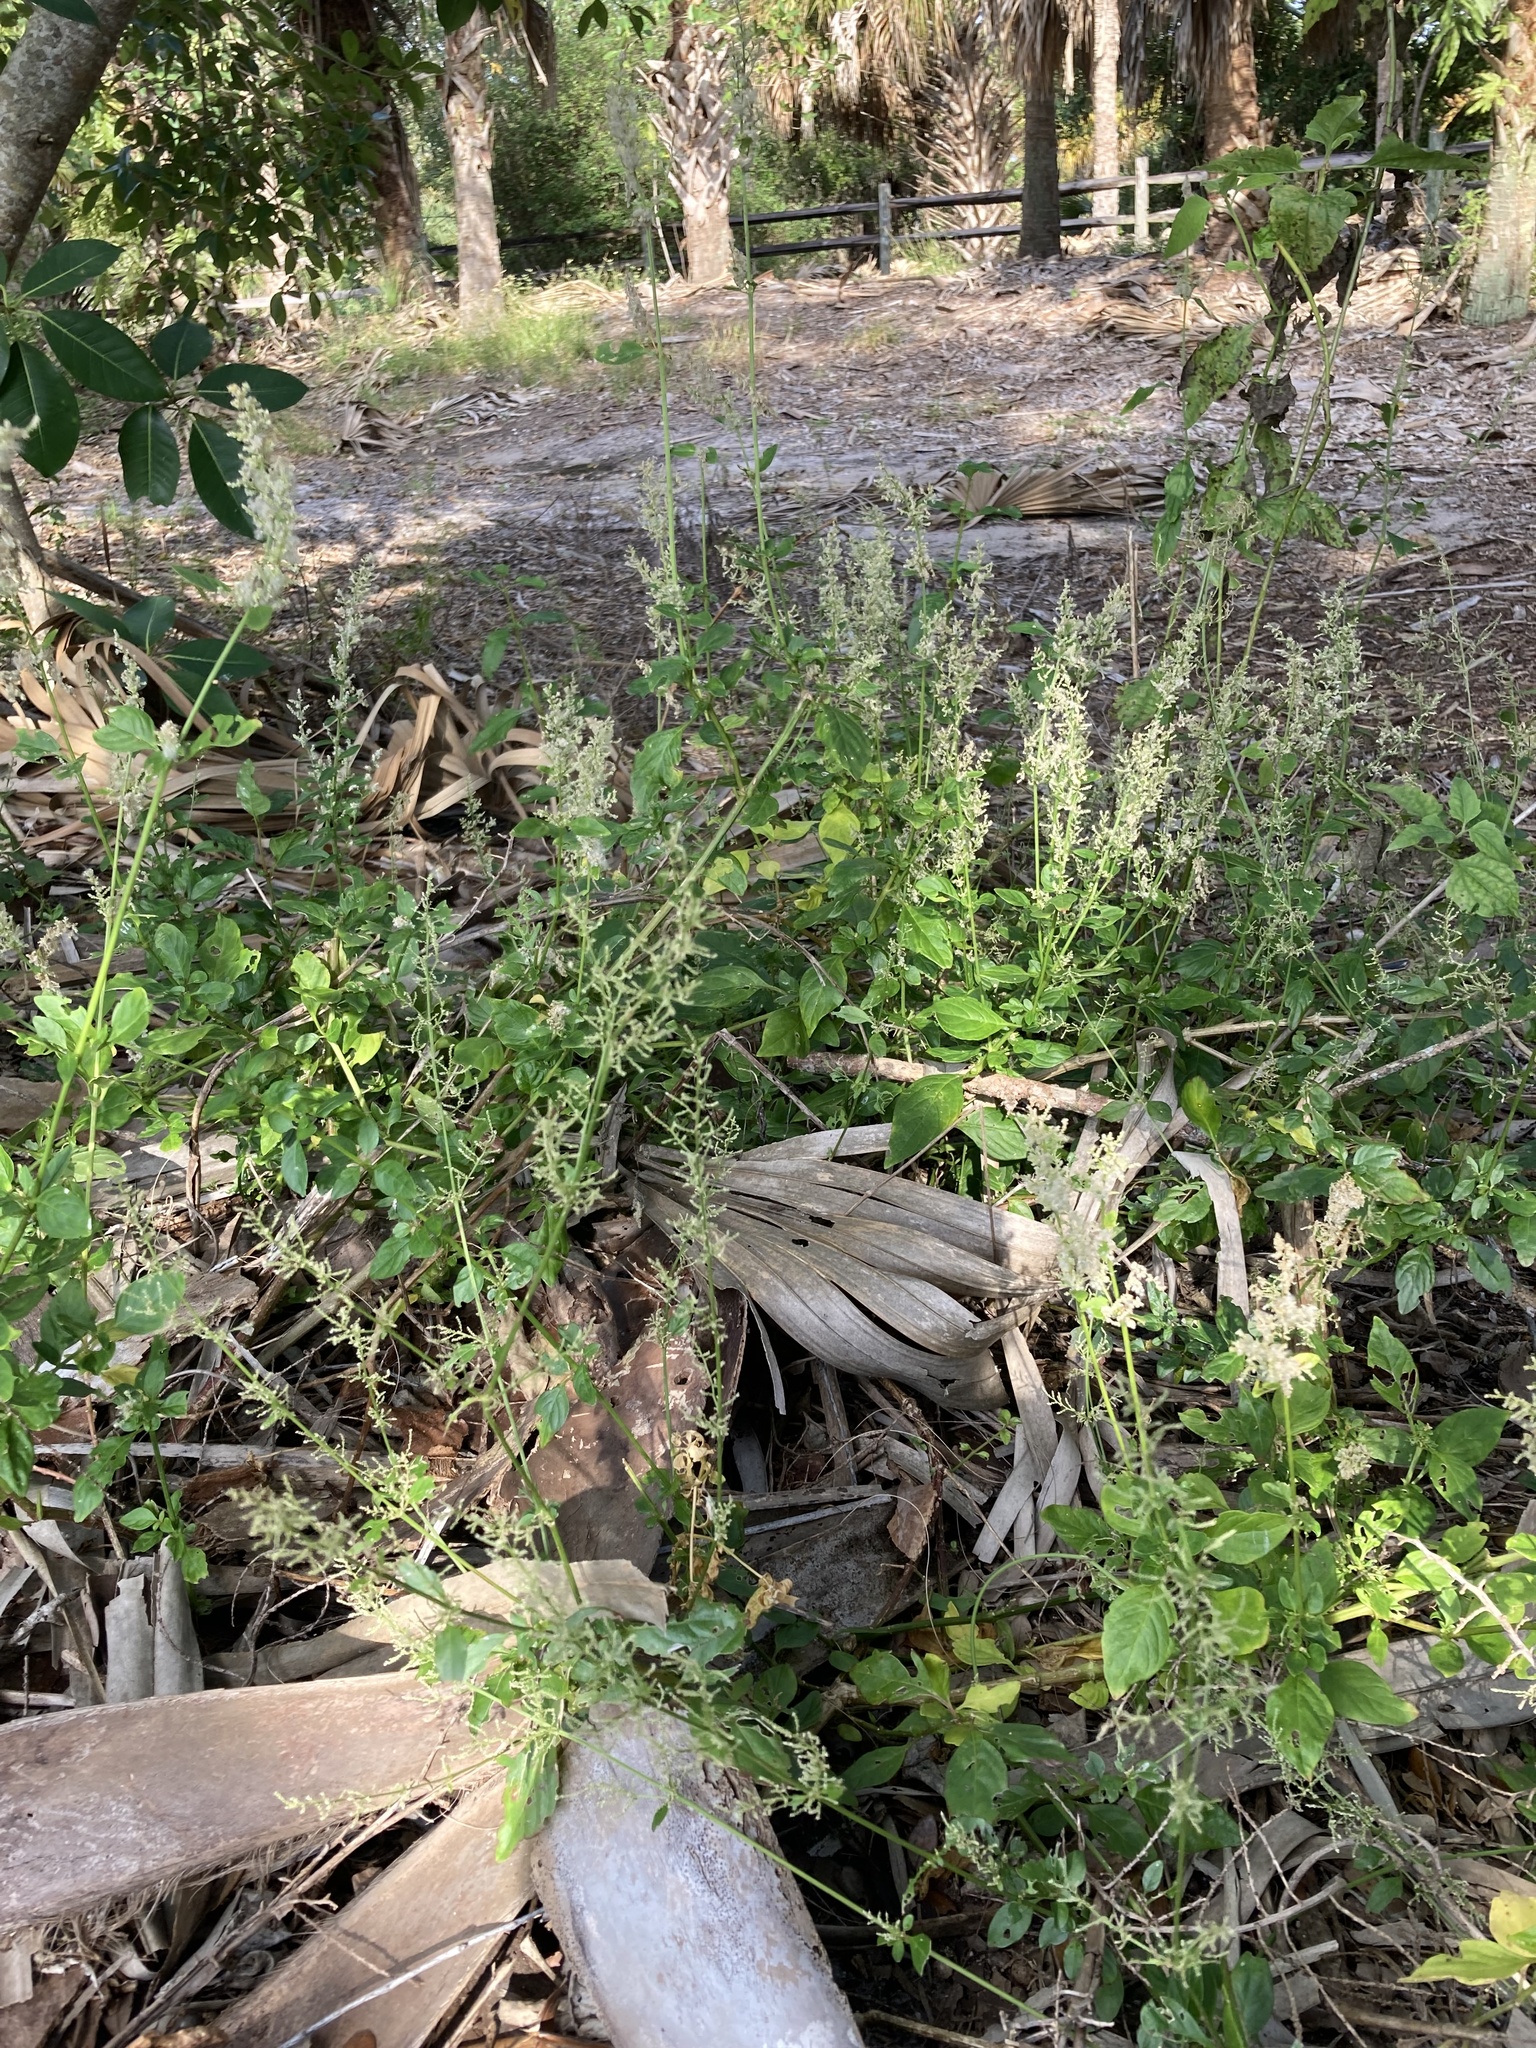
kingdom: Plantae
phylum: Tracheophyta
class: Magnoliopsida
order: Caryophyllales
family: Amaranthaceae
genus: Iresine
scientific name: Iresine diffusa
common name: Juba's-bush
